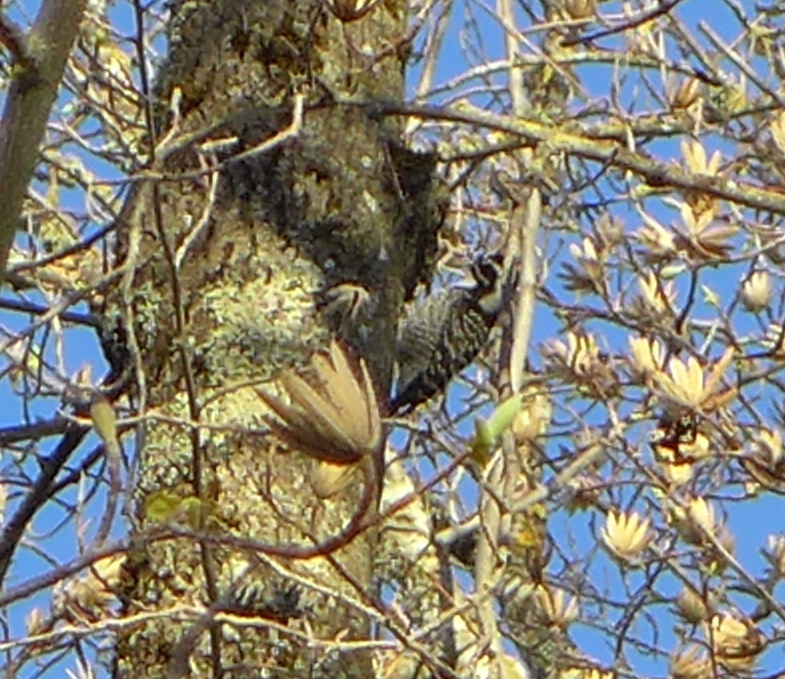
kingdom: Animalia
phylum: Chordata
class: Aves
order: Piciformes
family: Picidae
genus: Dryobates
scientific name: Dryobates nuttallii
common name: Nuttall's woodpecker
